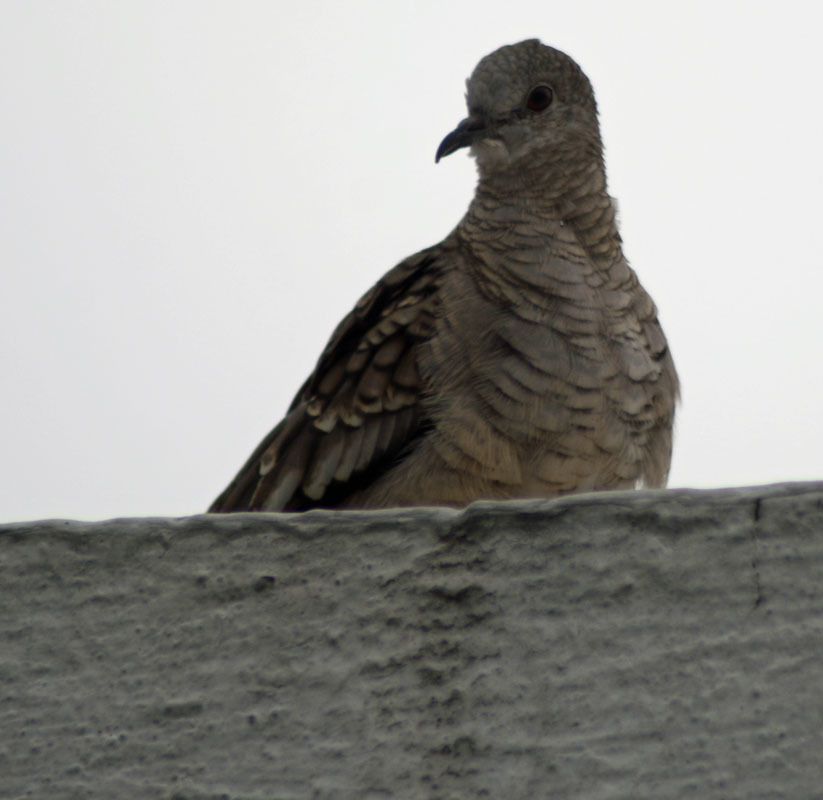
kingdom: Animalia
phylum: Chordata
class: Aves
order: Columbiformes
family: Columbidae
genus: Columbina
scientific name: Columbina inca
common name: Inca dove
